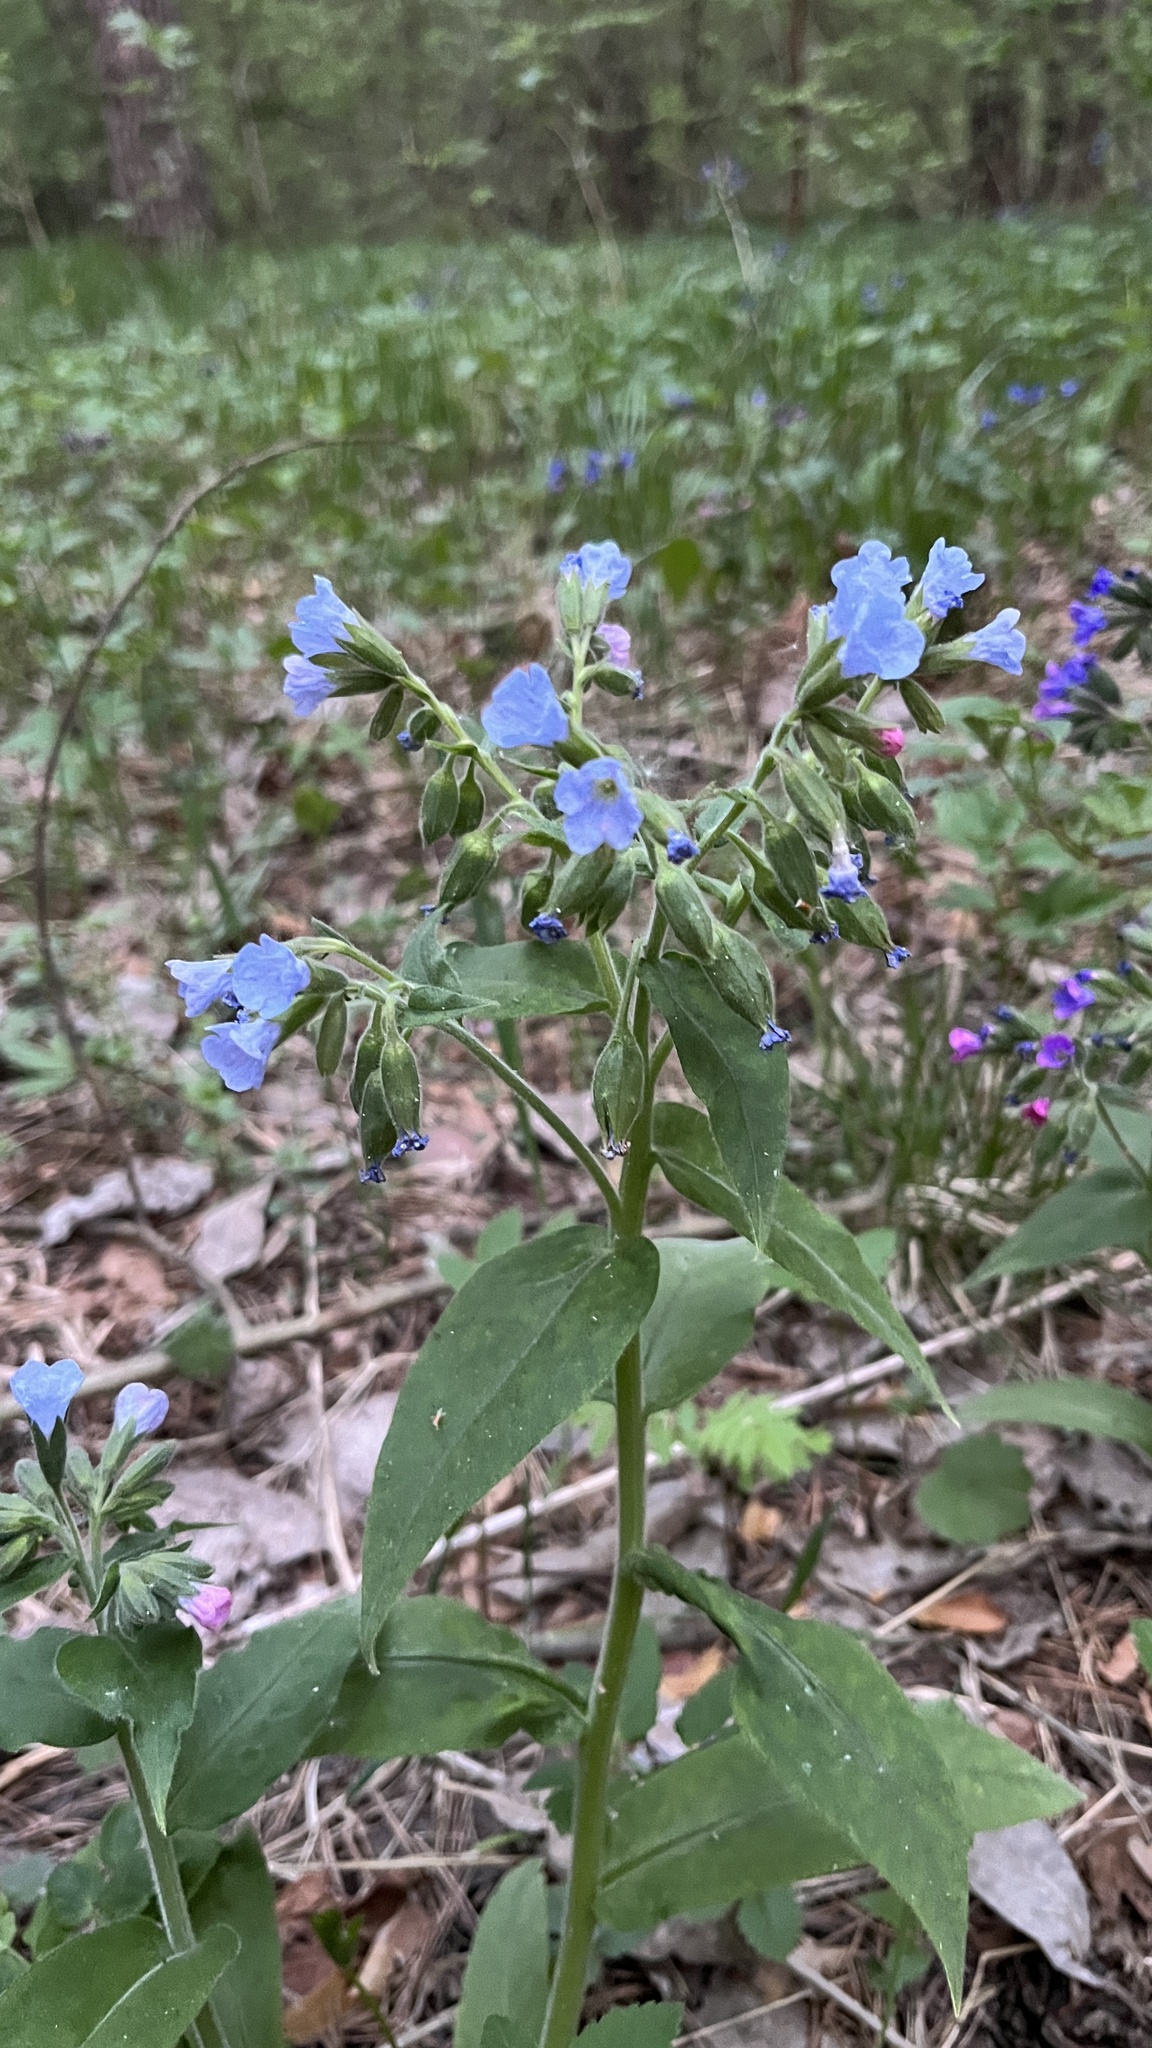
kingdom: Plantae
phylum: Tracheophyta
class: Magnoliopsida
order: Boraginales
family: Boraginaceae
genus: Pulmonaria
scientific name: Pulmonaria mollis
